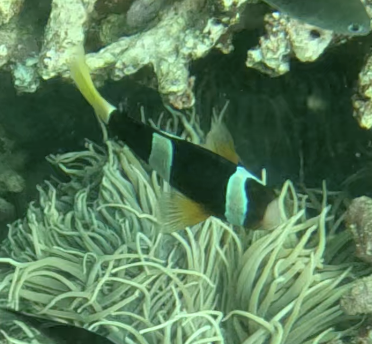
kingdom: Animalia
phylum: Chordata
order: Perciformes
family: Pomacentridae
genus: Amphiprion
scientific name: Amphiprion clarkii
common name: Clark's anemonefish
